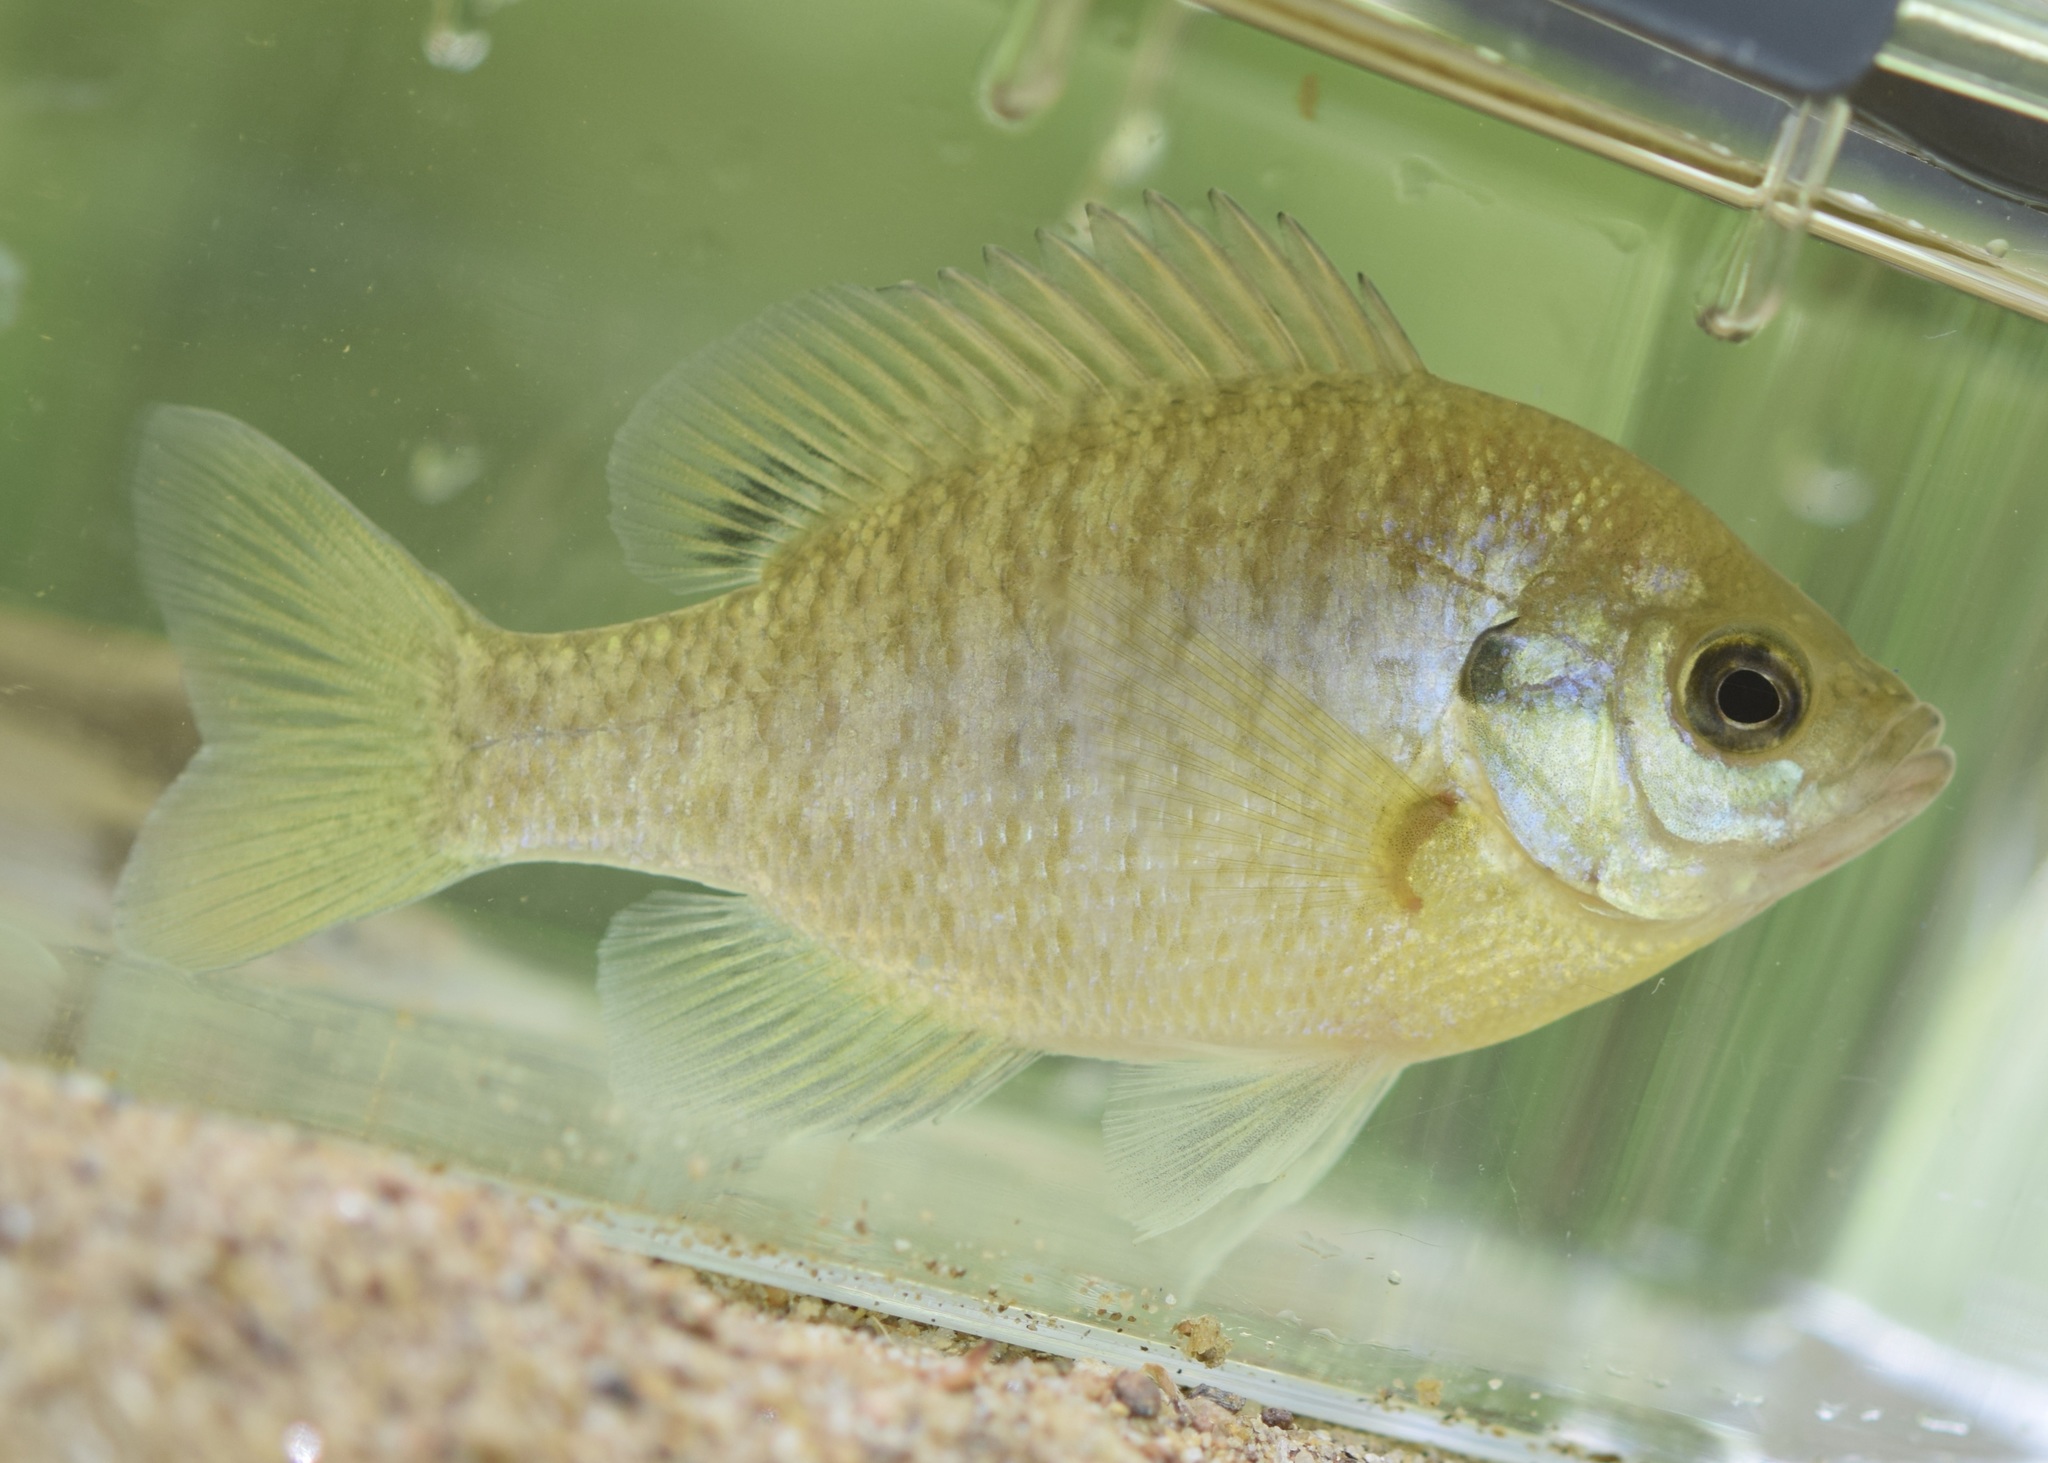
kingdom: Animalia
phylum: Chordata
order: Perciformes
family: Centrarchidae
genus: Lepomis
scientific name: Lepomis macrochirus
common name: Bluegill
